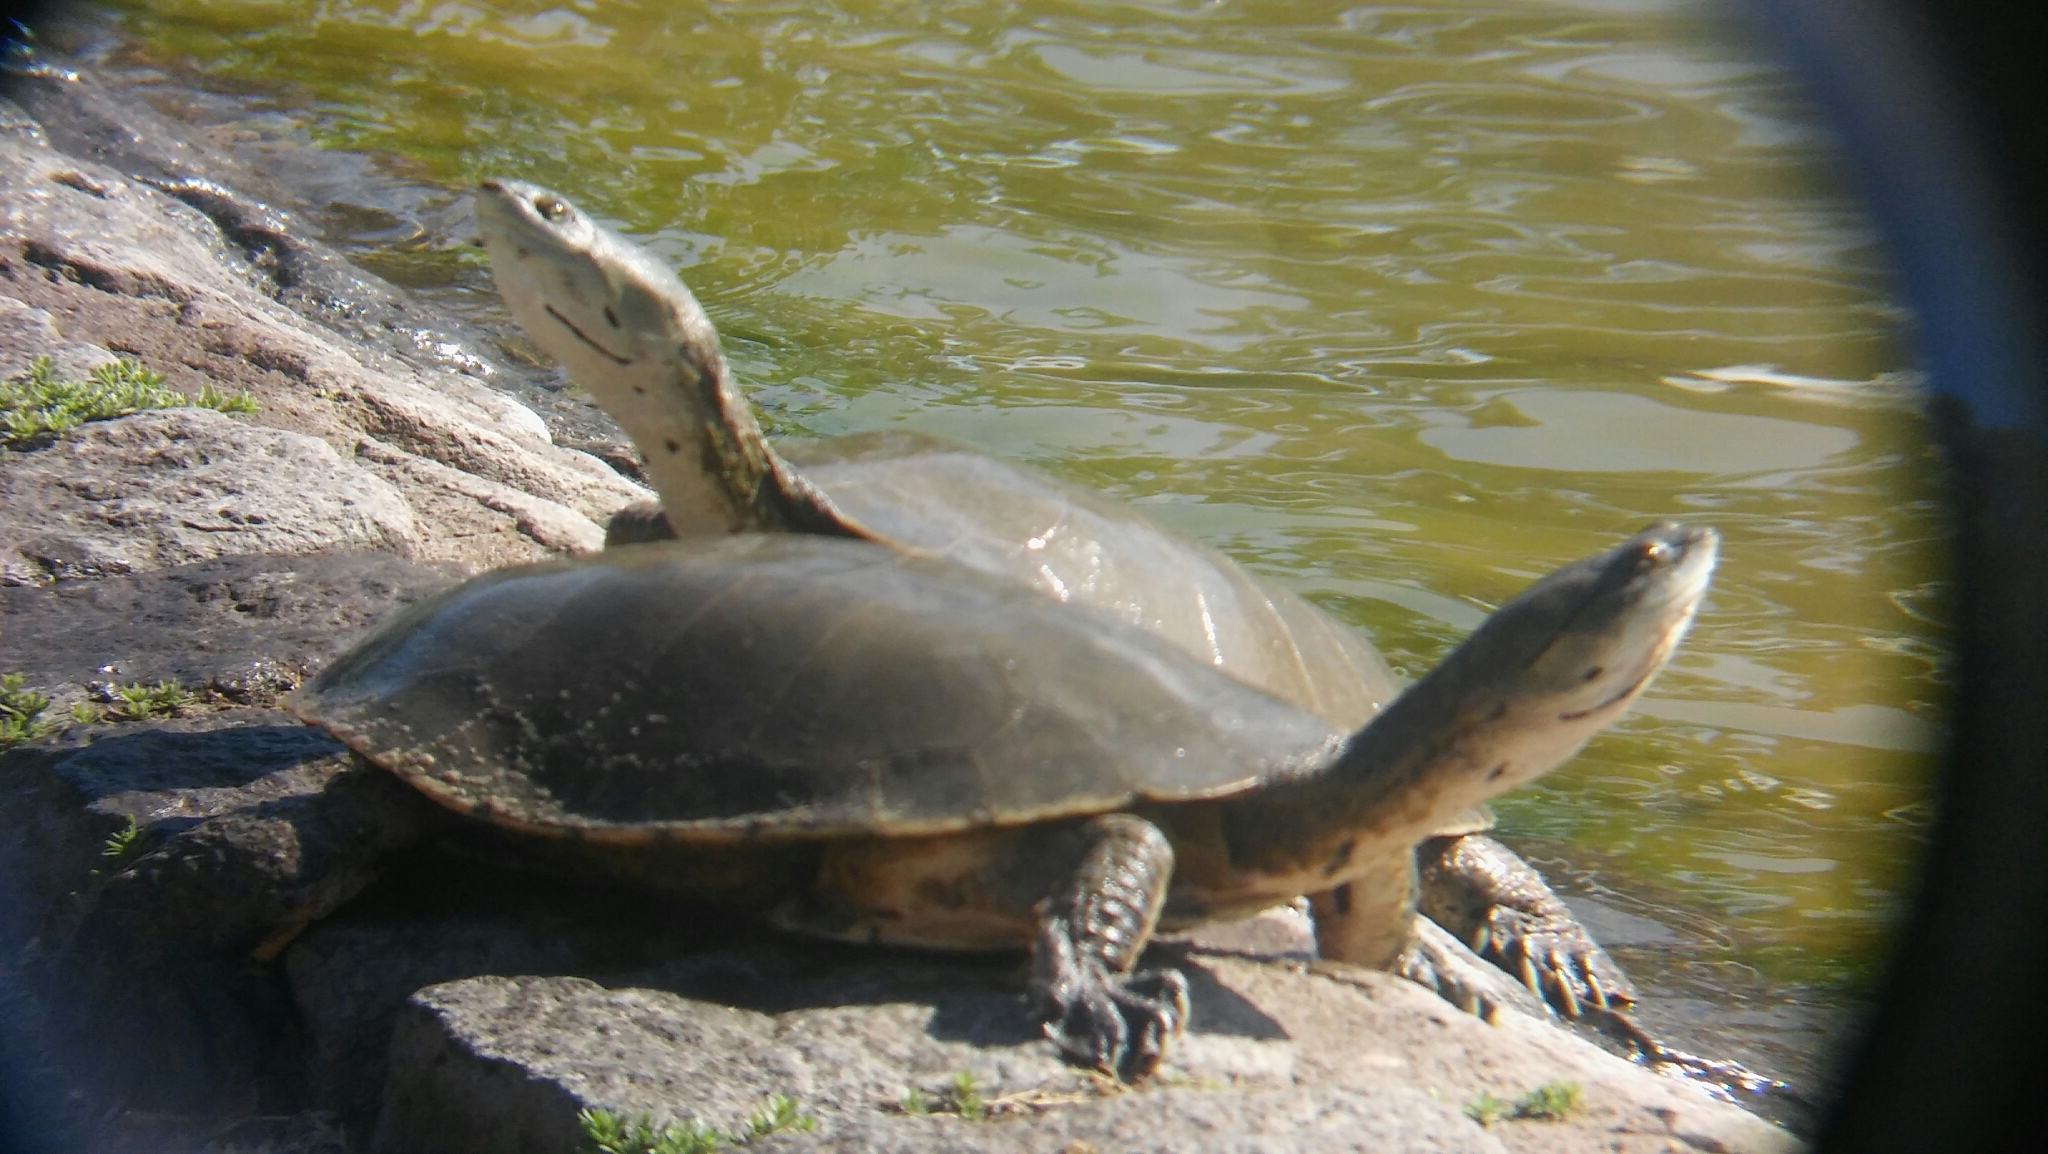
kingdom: Animalia
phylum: Chordata
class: Testudines
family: Chelidae
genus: Phrynops
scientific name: Phrynops hilarii
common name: Side-necked turtle of saint hillaire
